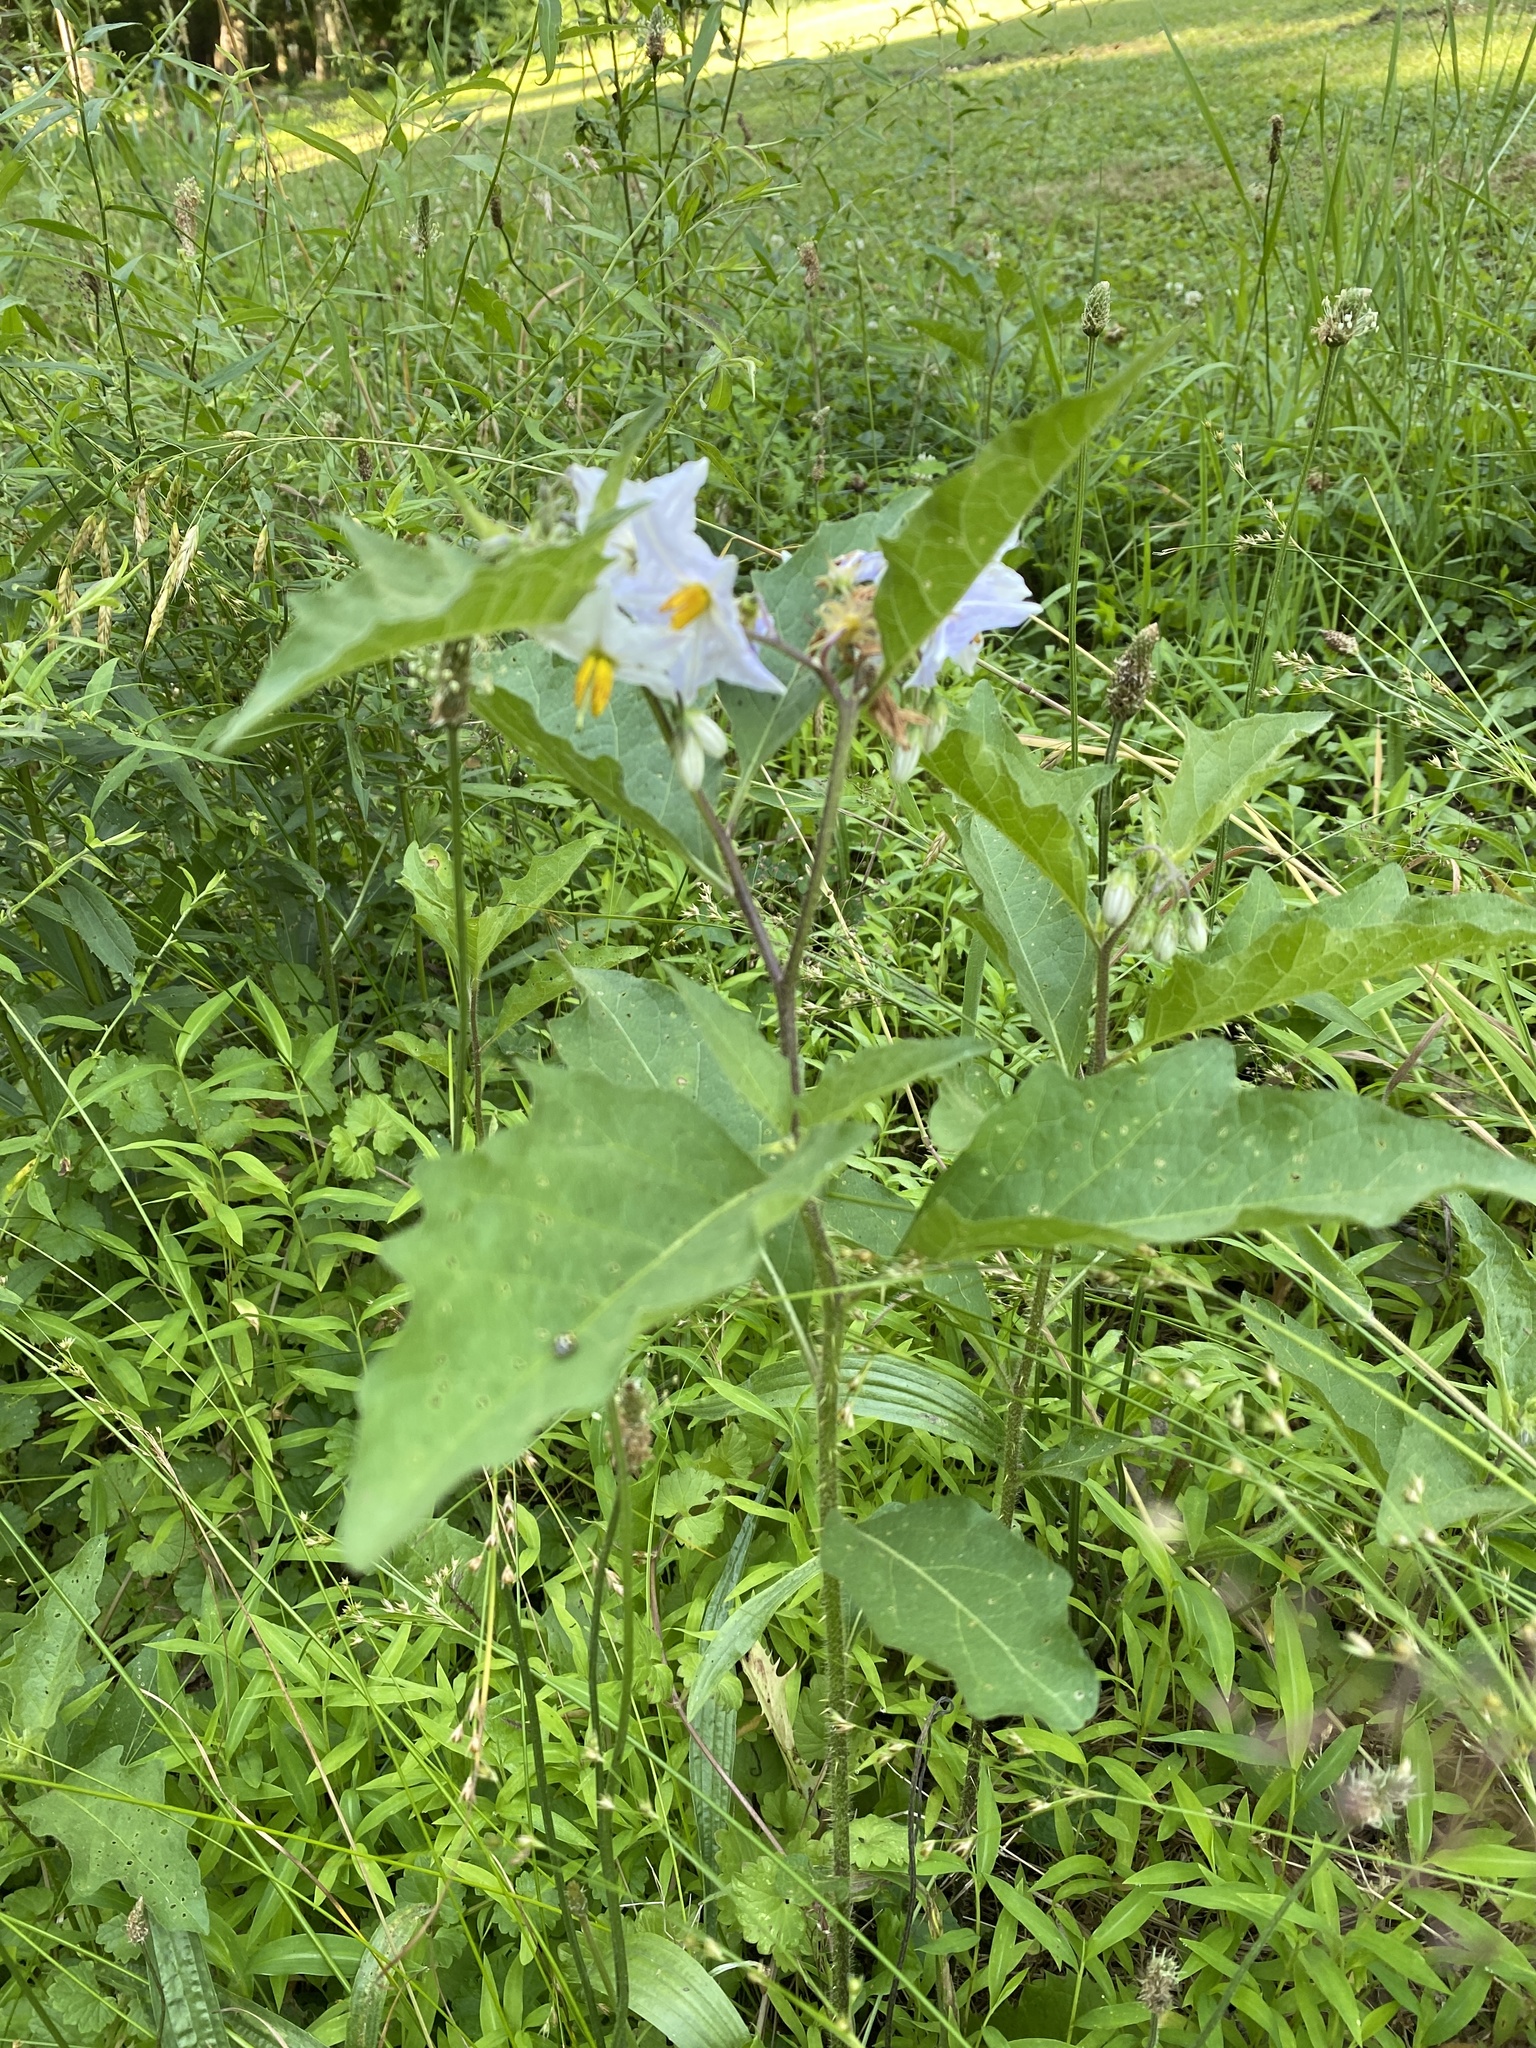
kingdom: Plantae
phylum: Tracheophyta
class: Magnoliopsida
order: Solanales
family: Solanaceae
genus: Solanum
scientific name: Solanum carolinense
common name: Horse-nettle
